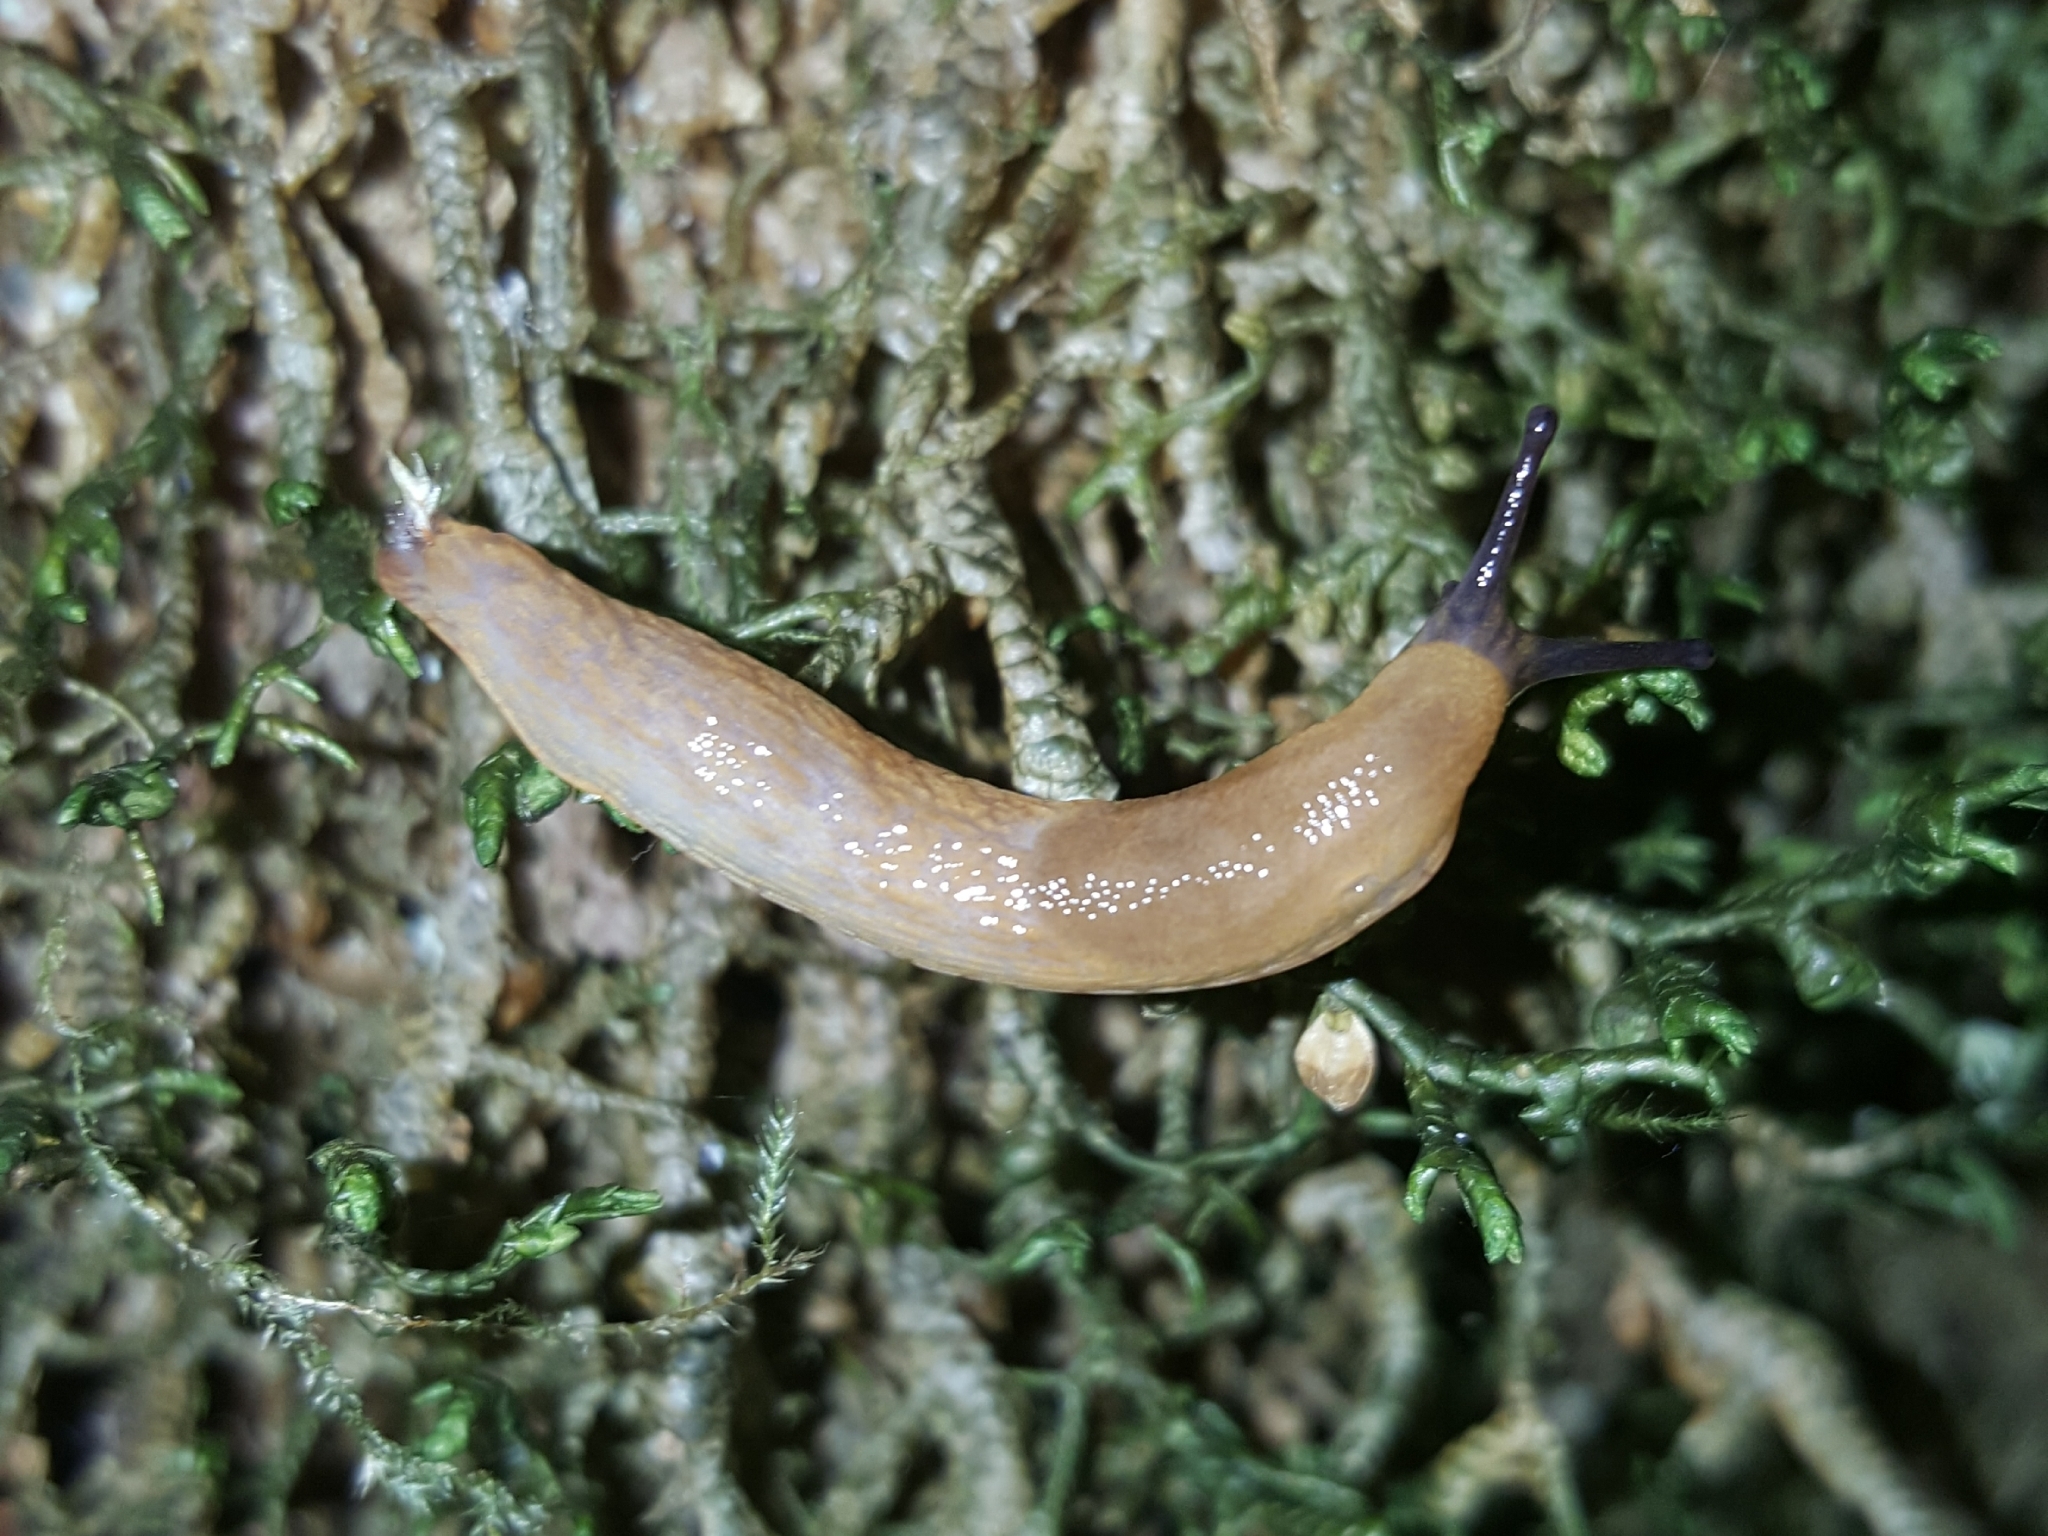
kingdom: Animalia
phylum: Mollusca
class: Gastropoda
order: Stylommatophora
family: Arionidae
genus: Arion
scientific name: Arion
